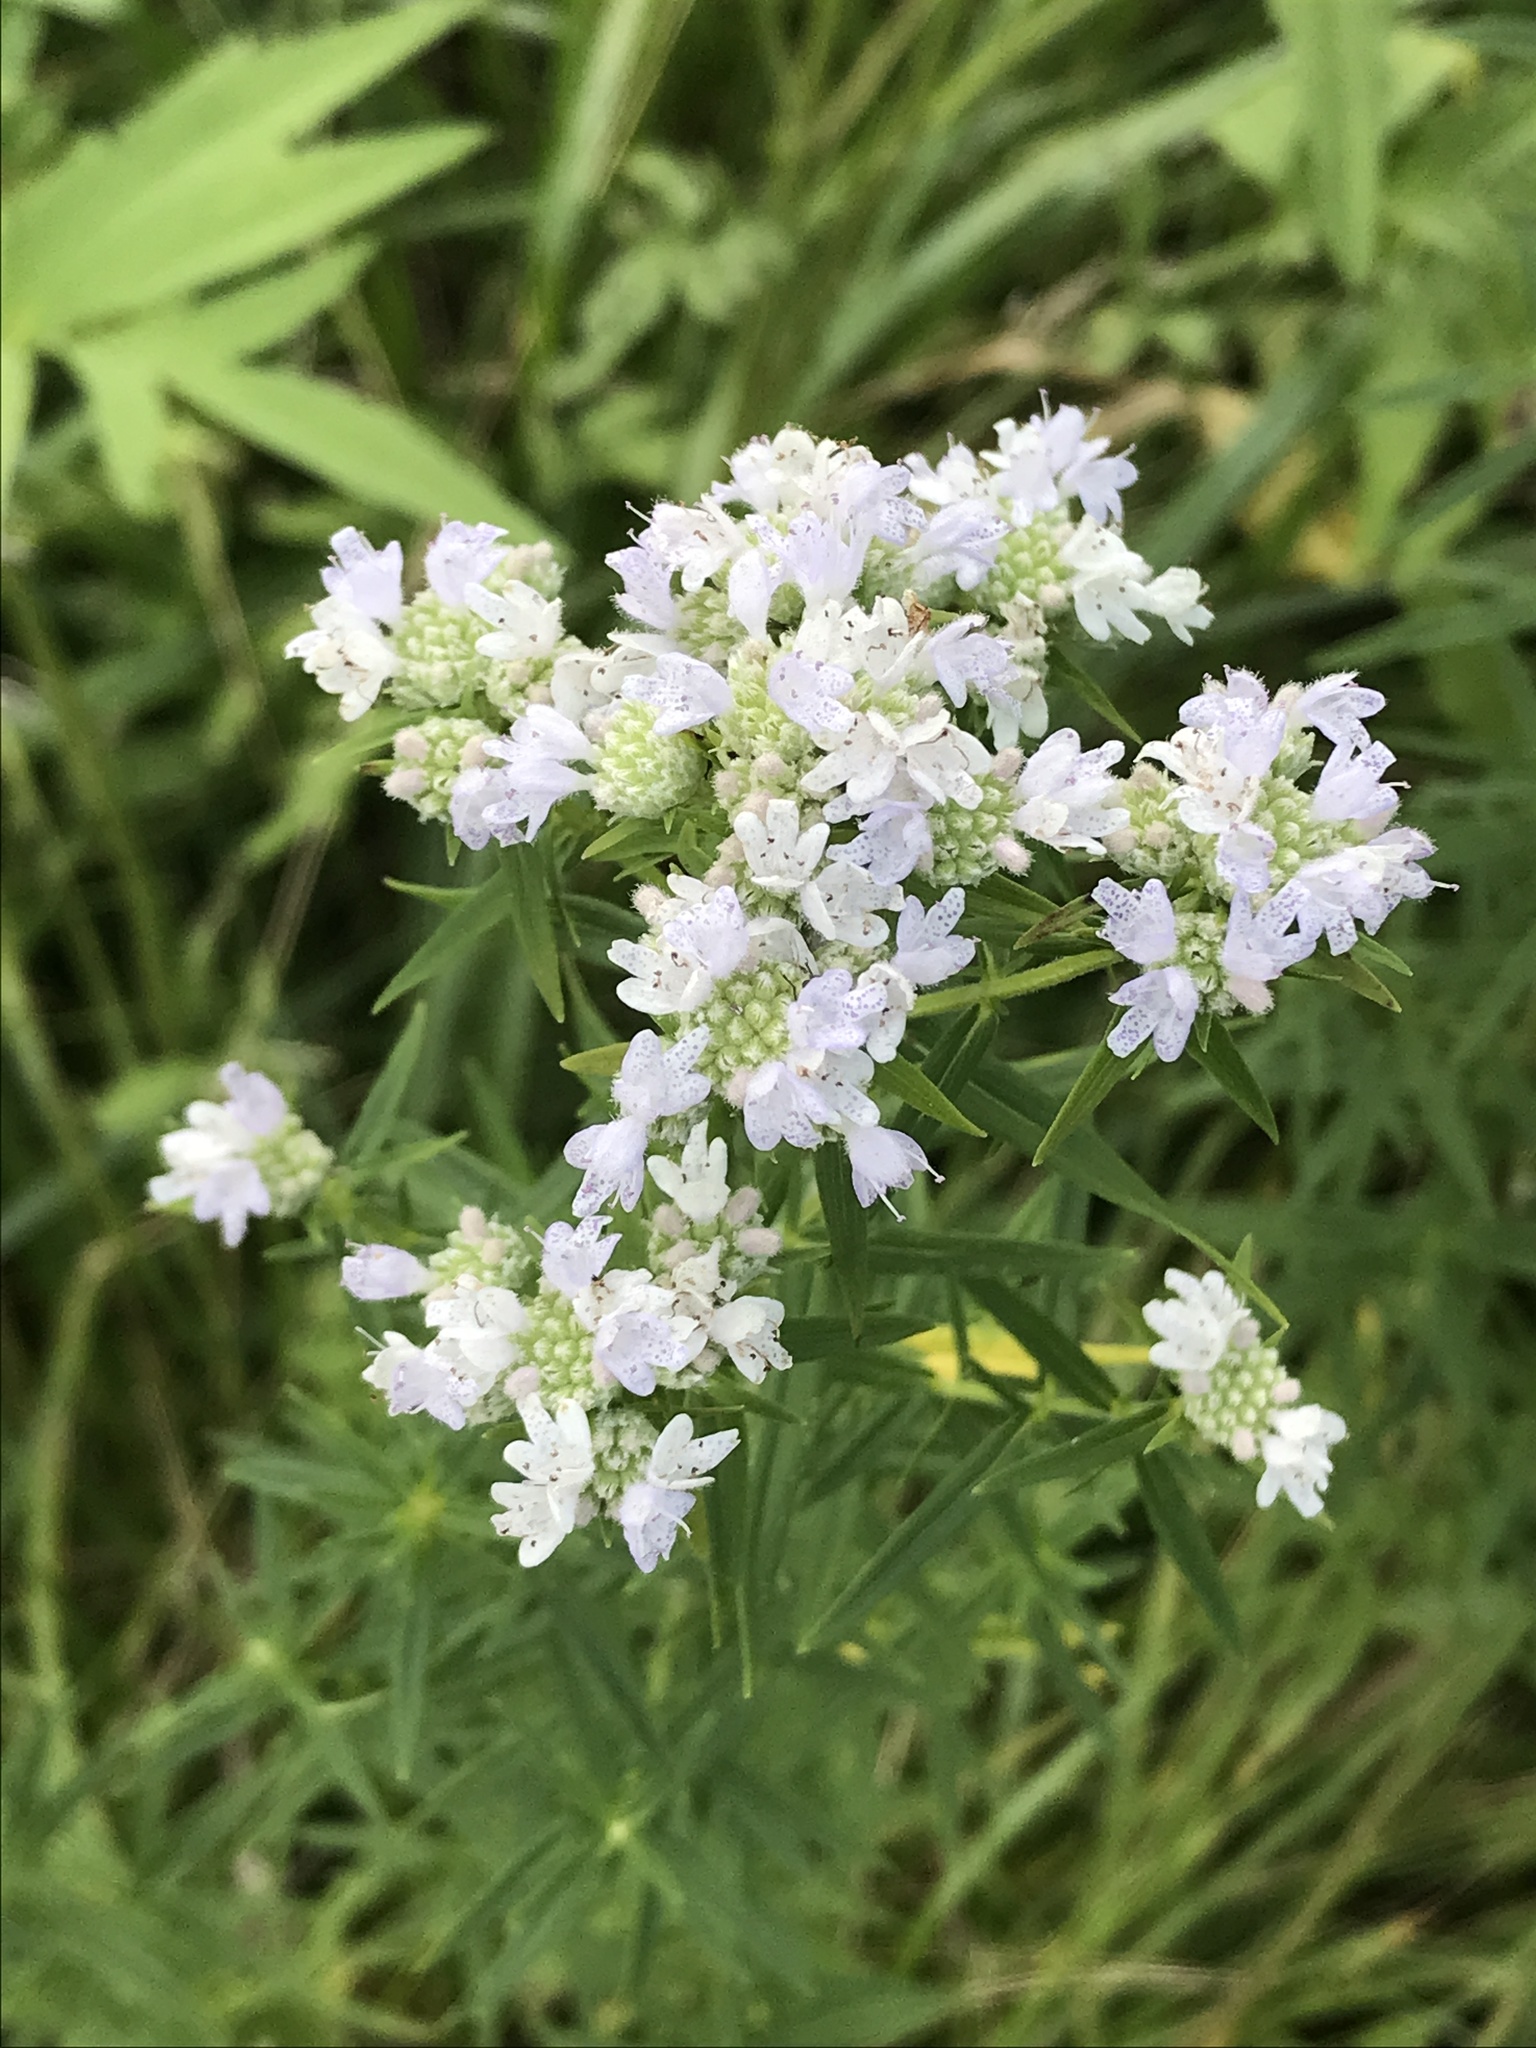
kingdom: Plantae
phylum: Tracheophyta
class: Magnoliopsida
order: Lamiales
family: Lamiaceae
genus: Pycnanthemum
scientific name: Pycnanthemum virginianum
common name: Virginia mountain-mint
